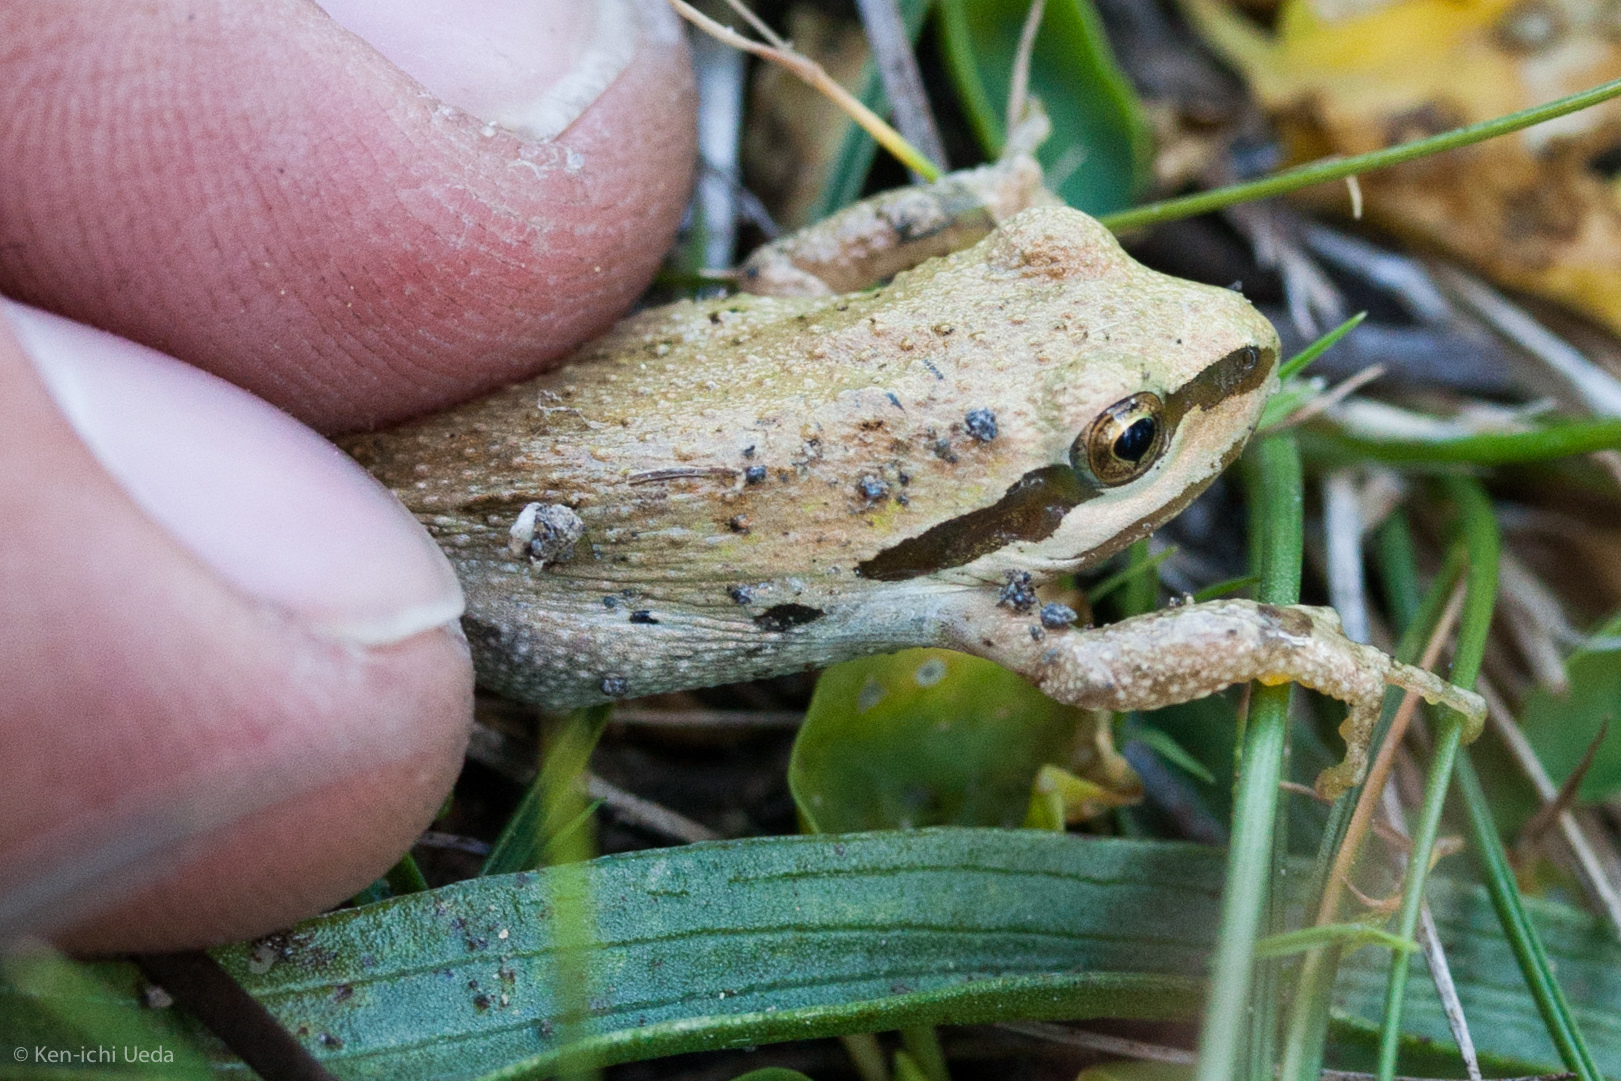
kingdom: Animalia
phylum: Chordata
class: Amphibia
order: Anura
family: Hylidae
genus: Pseudacris
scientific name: Pseudacris regilla
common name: Pacific chorus frog
